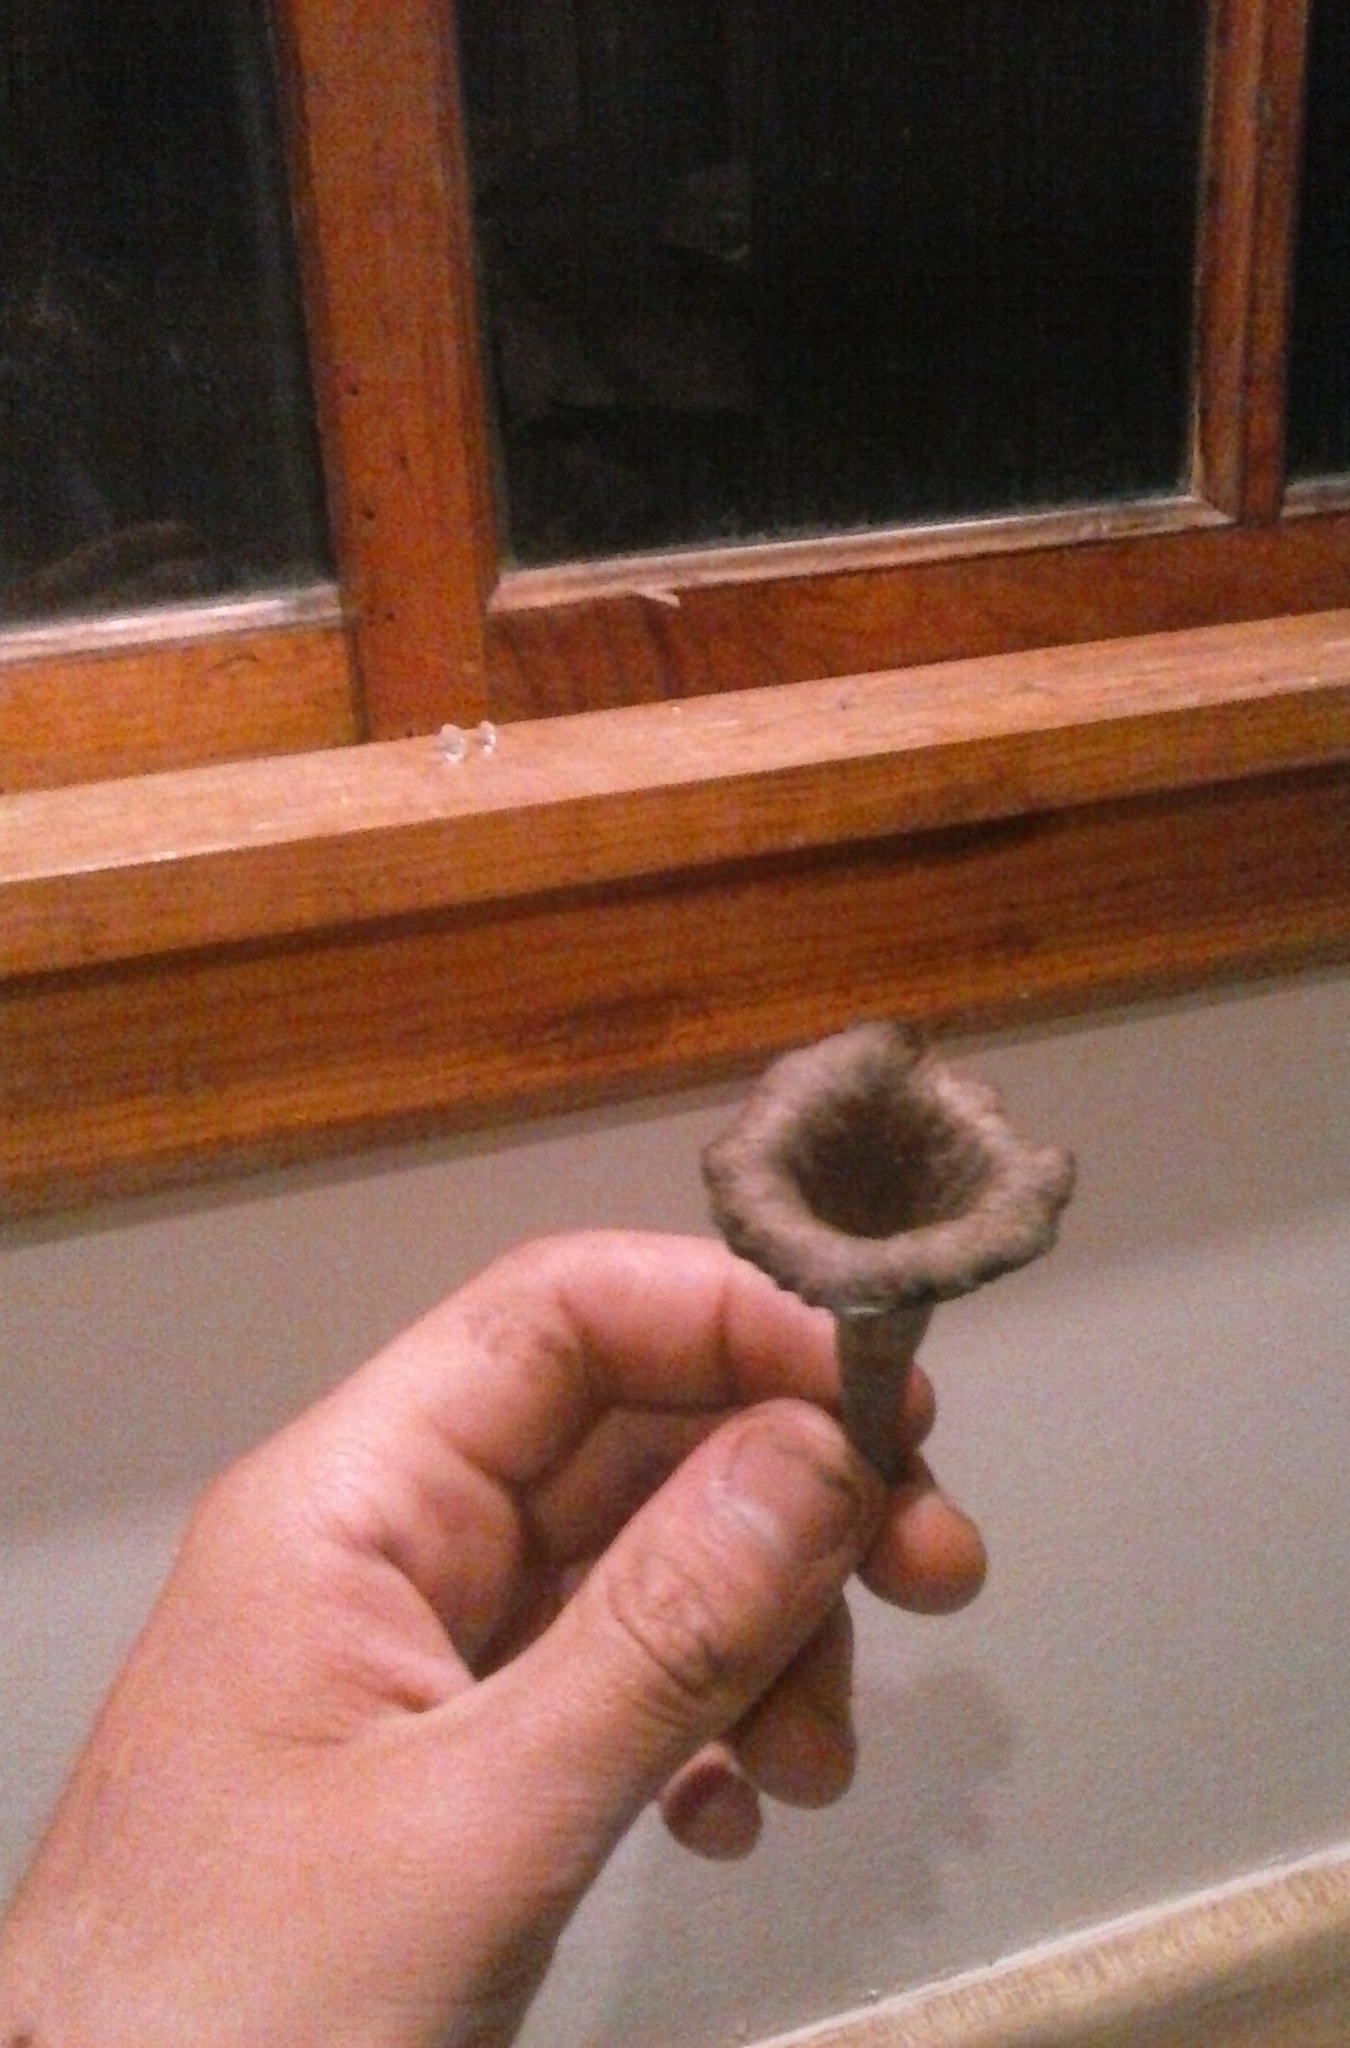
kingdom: Fungi
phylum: Basidiomycota
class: Agaricomycetes
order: Cantharellales
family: Hydnaceae
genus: Craterellus
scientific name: Craterellus cornucopioides
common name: Horn of plenty
